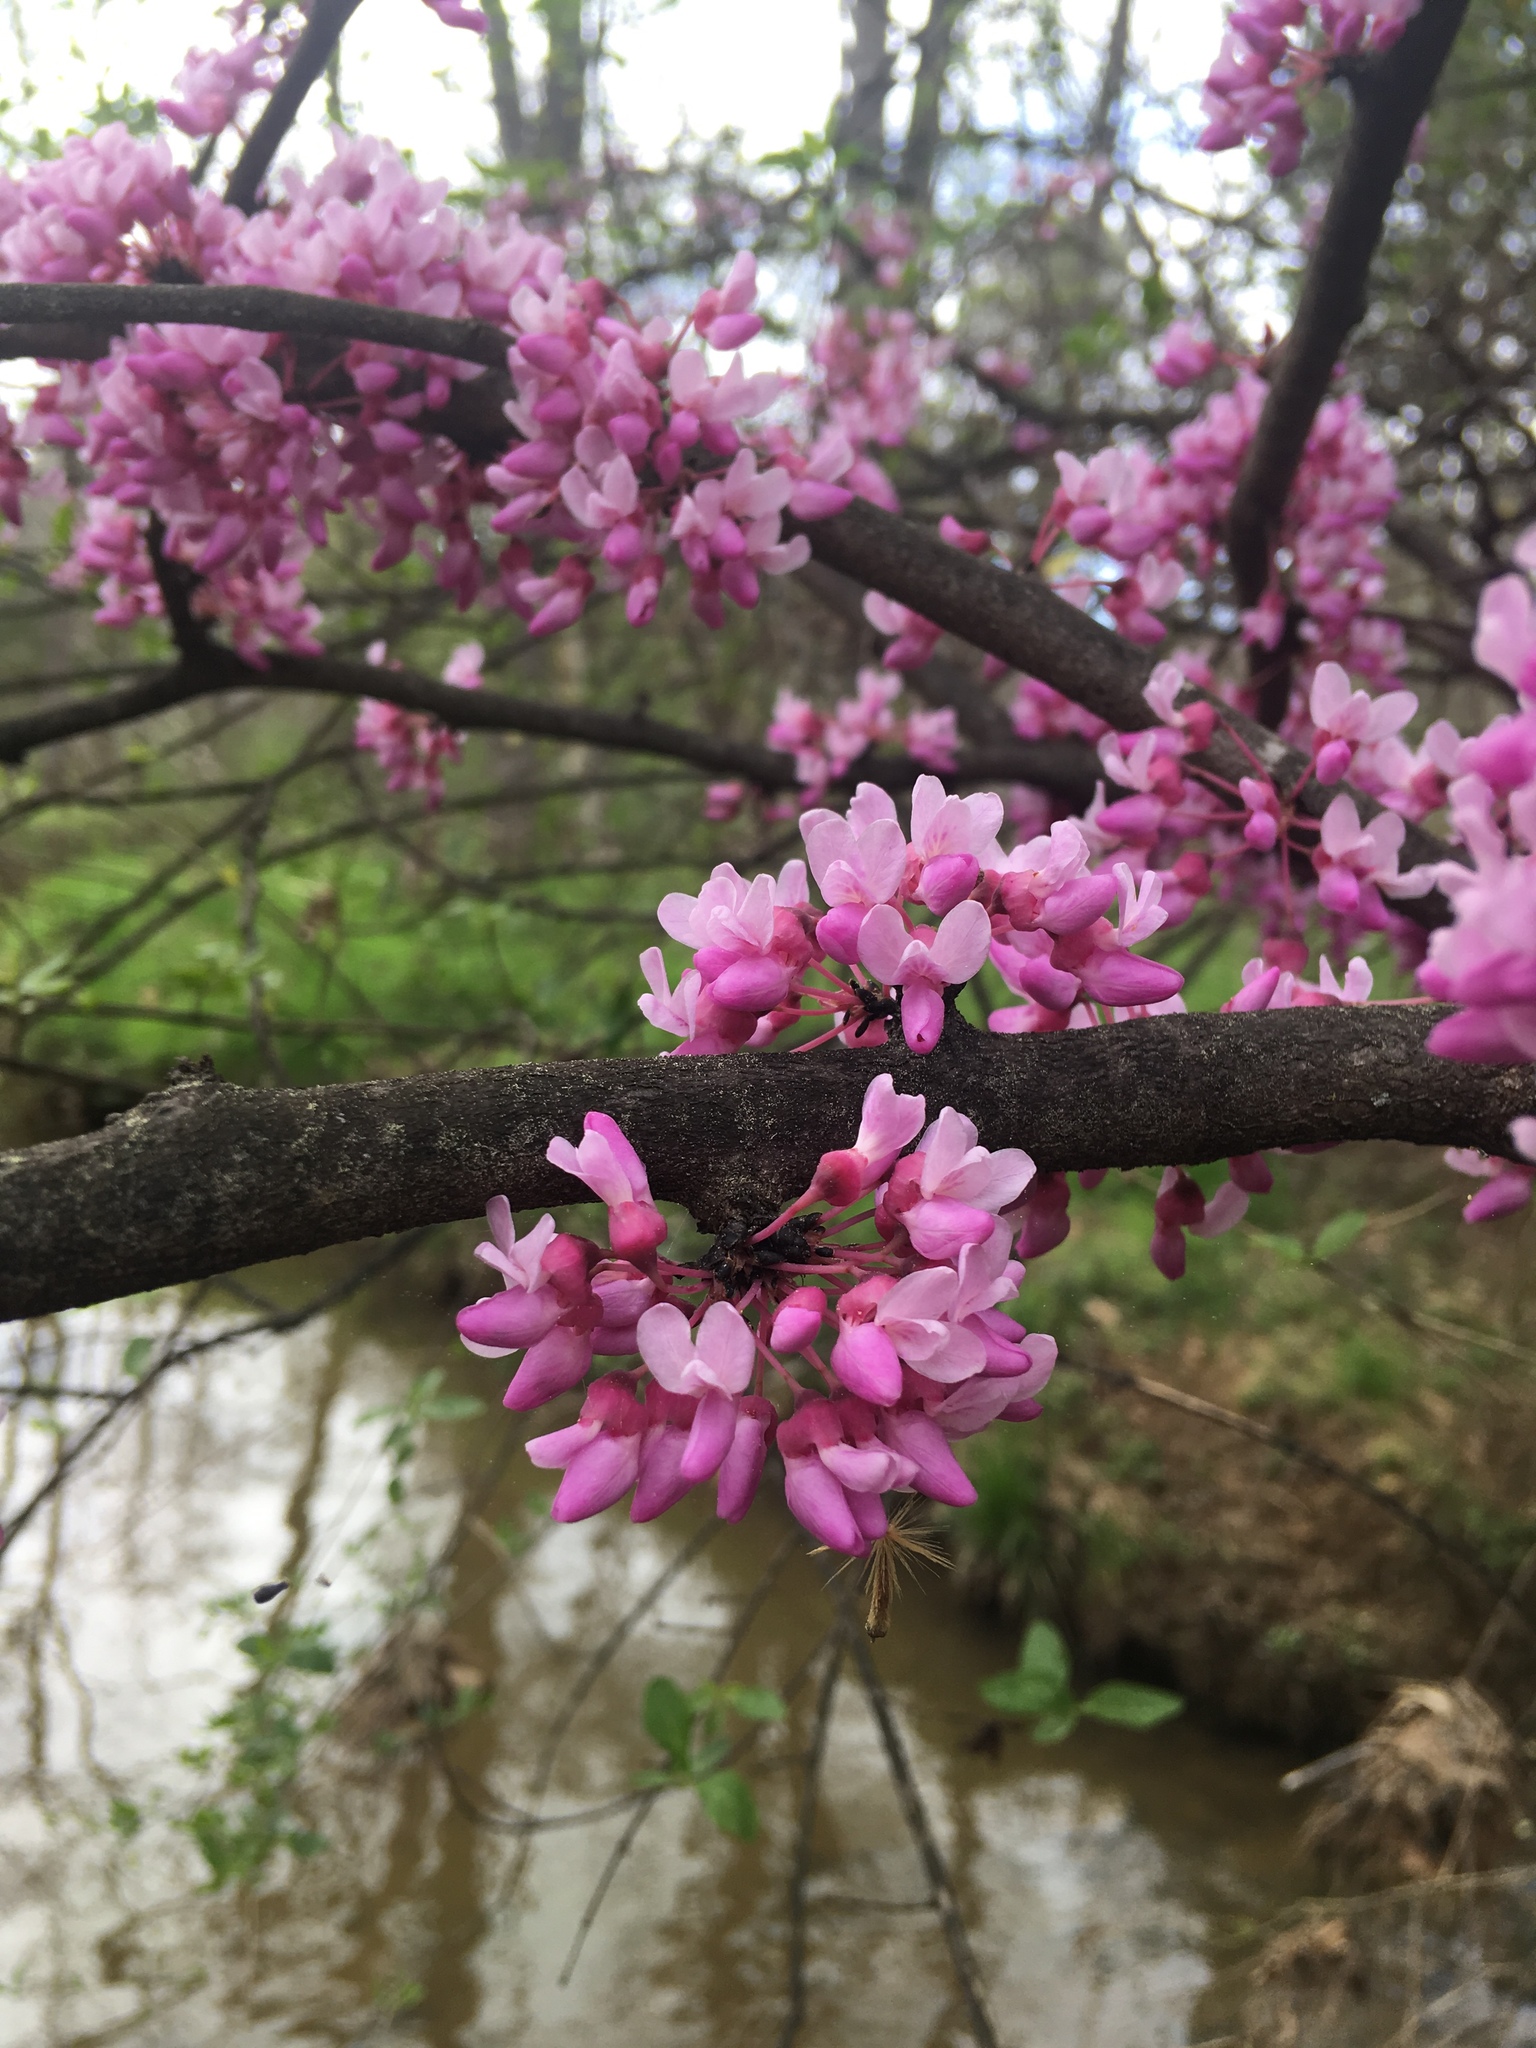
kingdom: Plantae
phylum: Tracheophyta
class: Magnoliopsida
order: Fabales
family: Fabaceae
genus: Cercis
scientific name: Cercis canadensis
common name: Eastern redbud
